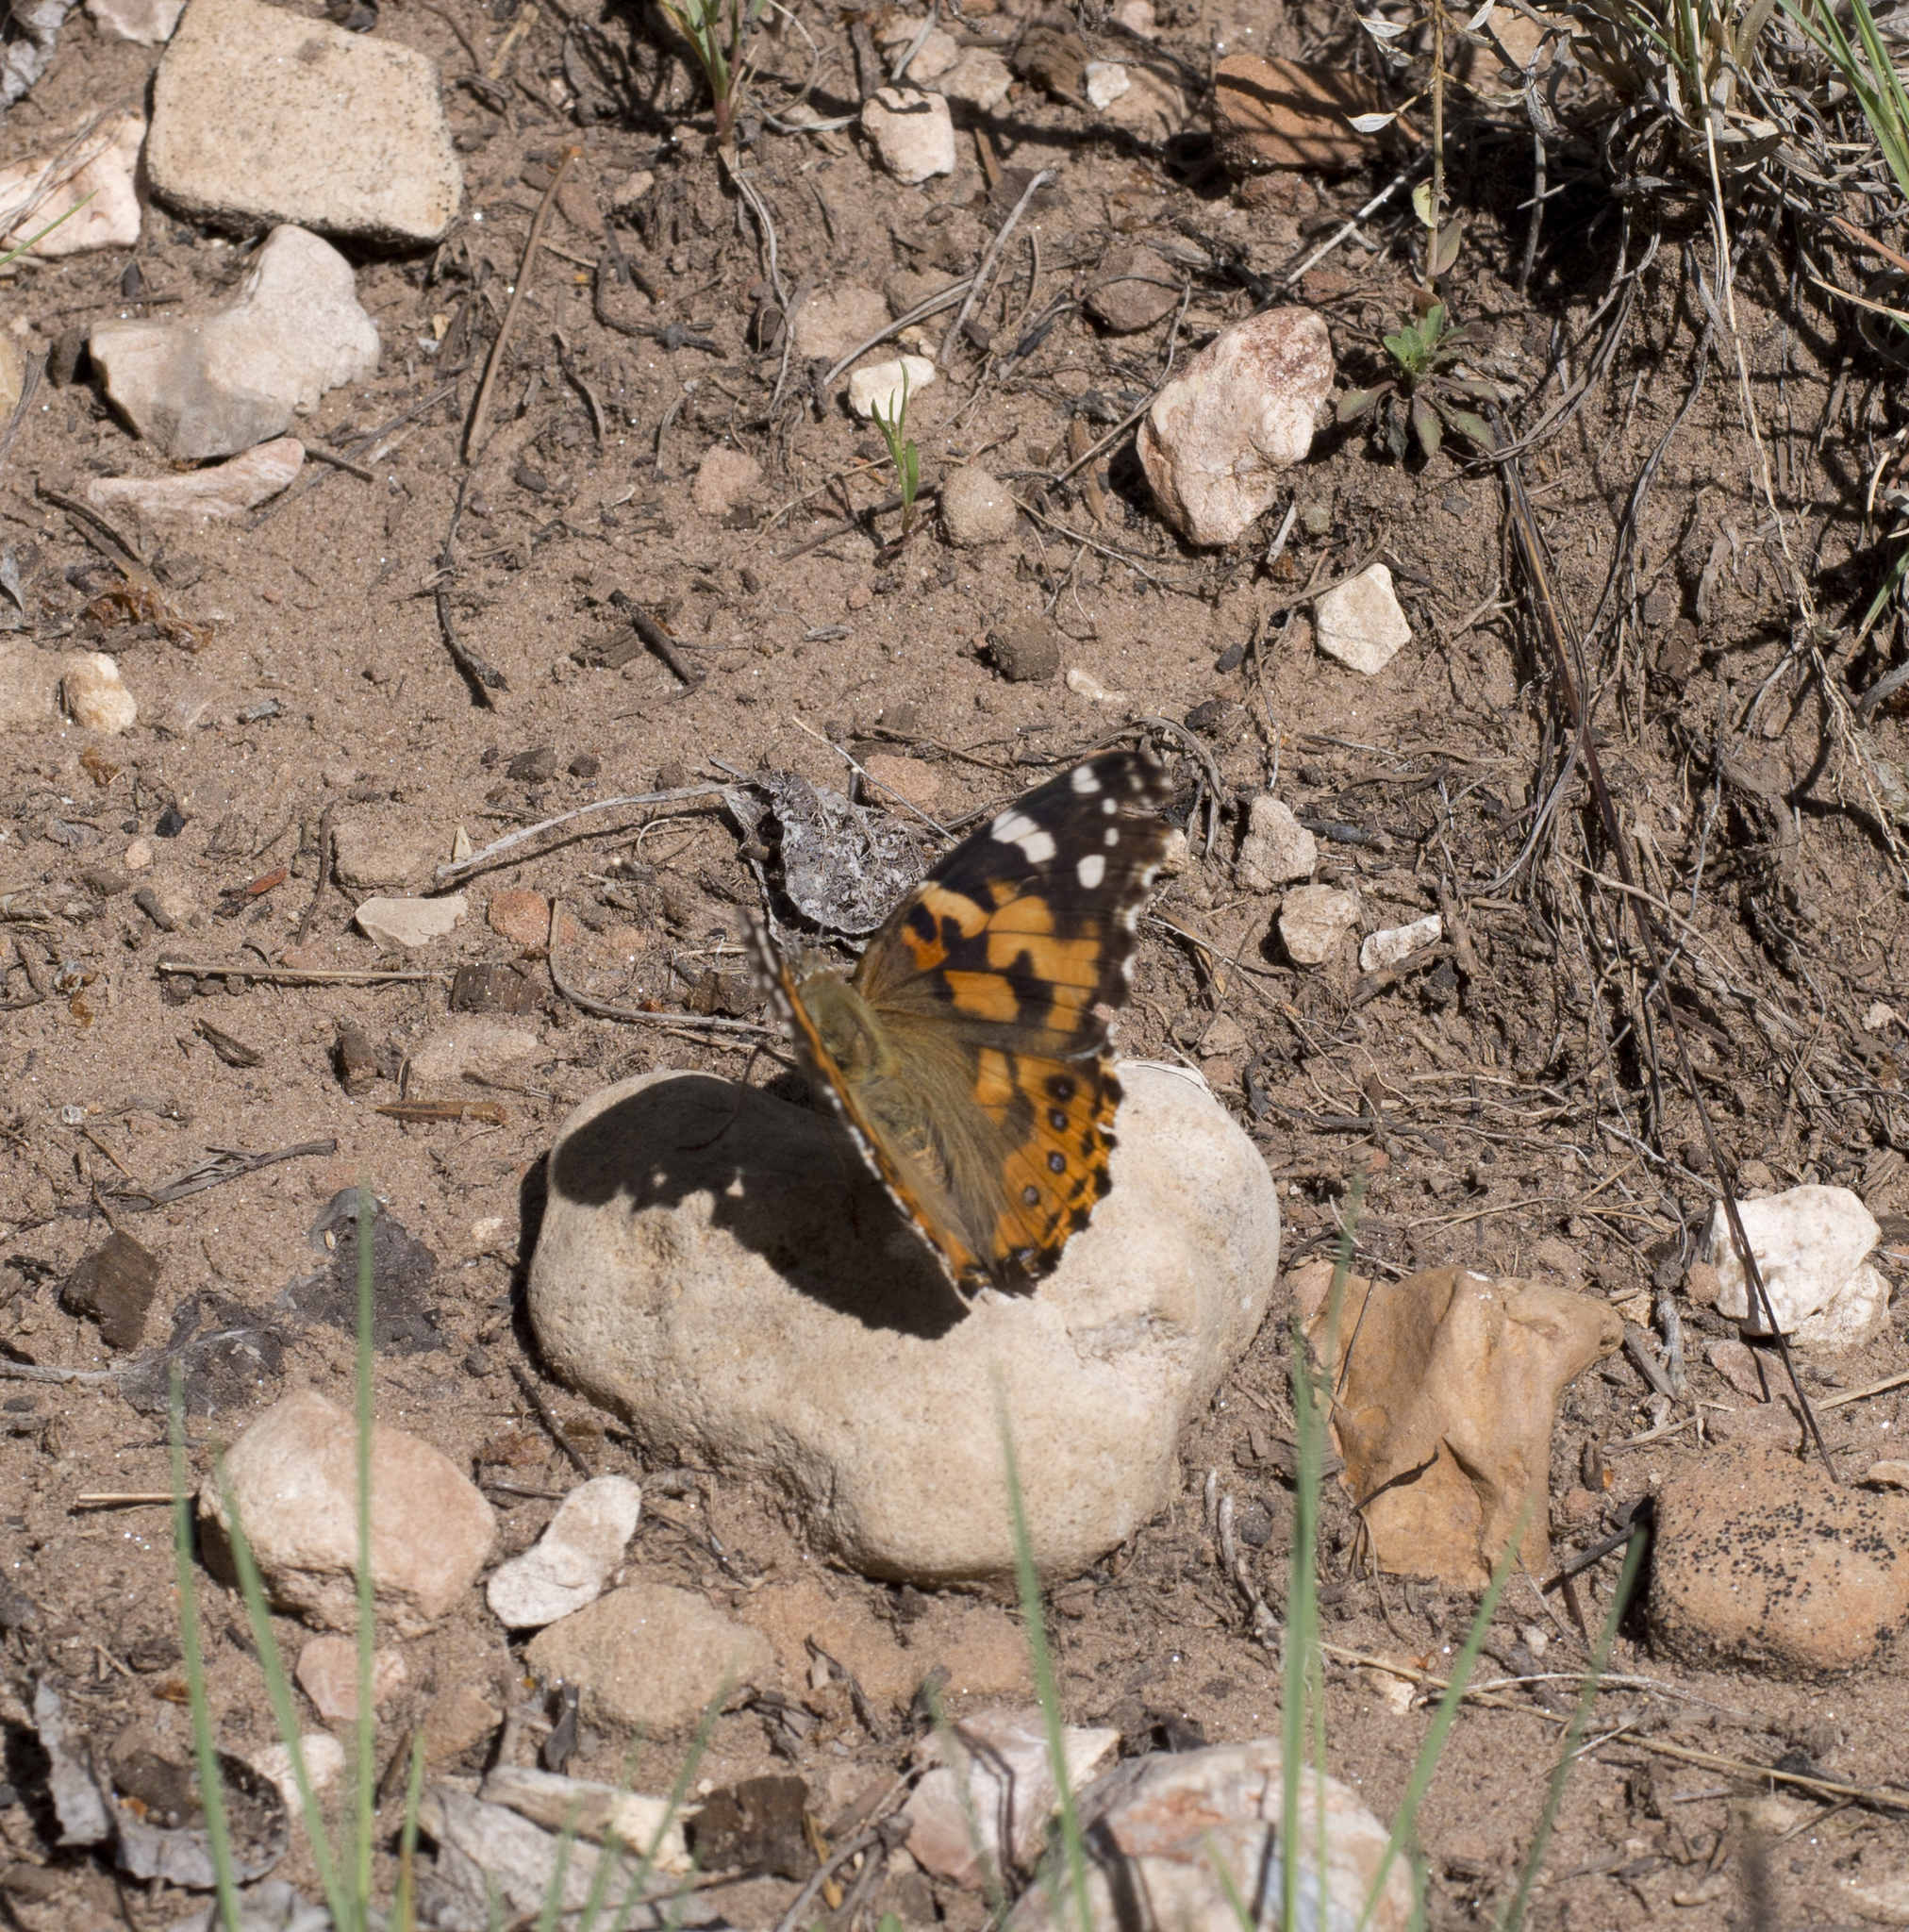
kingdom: Animalia
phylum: Arthropoda
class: Insecta
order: Lepidoptera
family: Nymphalidae
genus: Vanessa
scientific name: Vanessa cardui
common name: Painted lady
